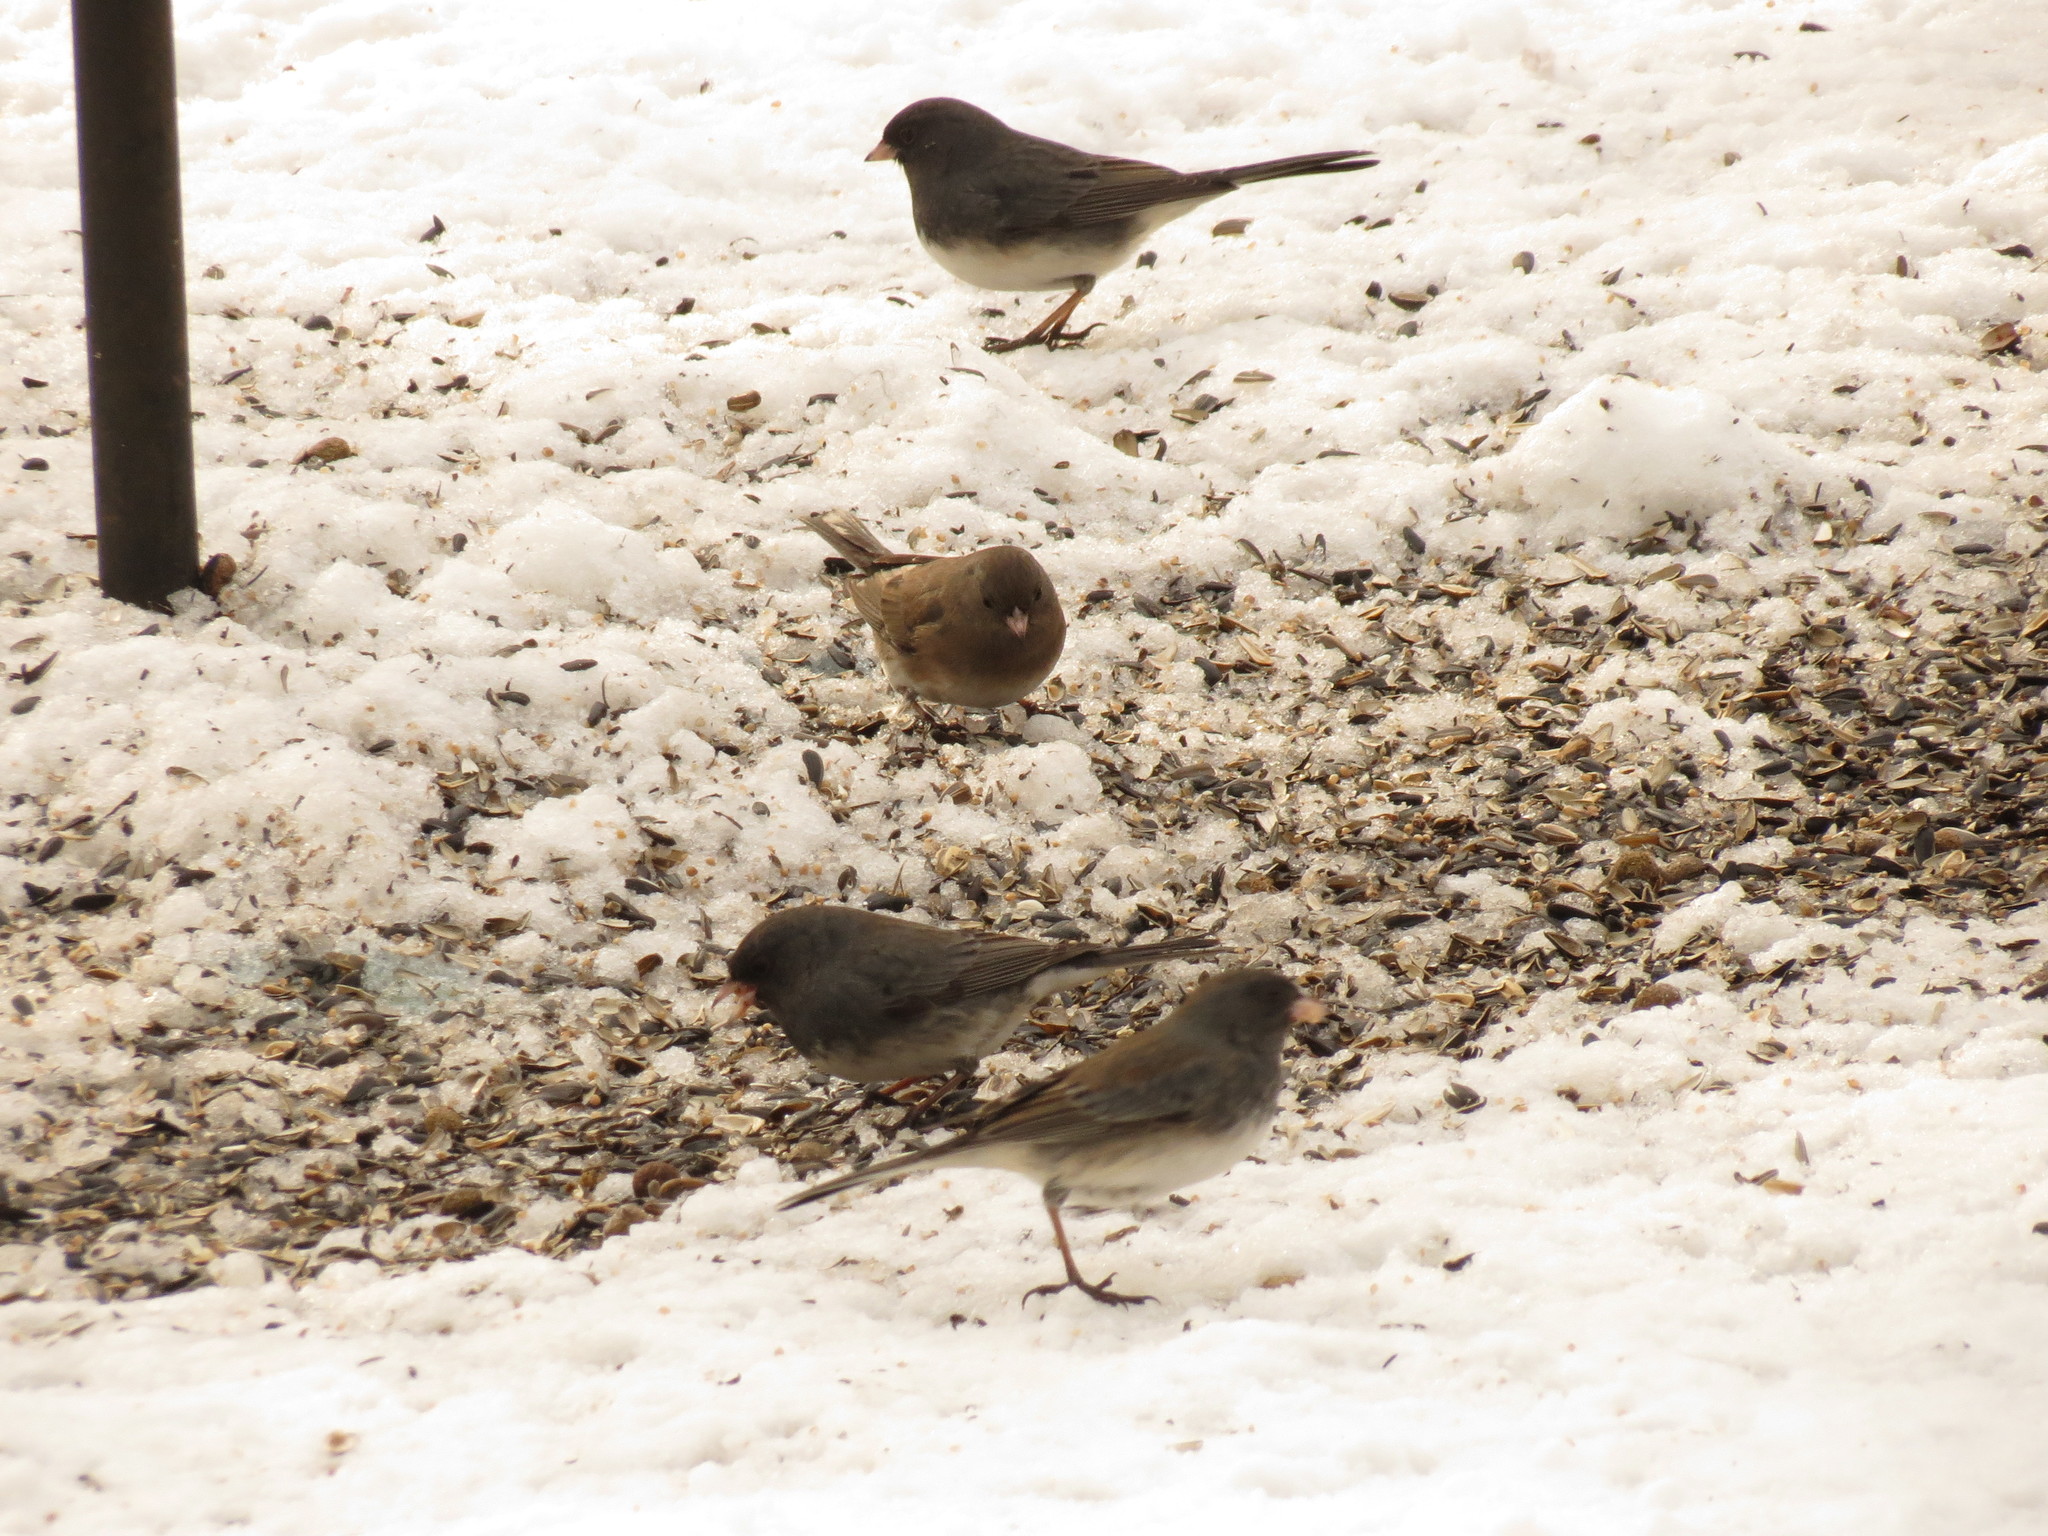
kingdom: Animalia
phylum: Chordata
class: Aves
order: Passeriformes
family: Passerellidae
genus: Junco
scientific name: Junco hyemalis
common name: Dark-eyed junco
